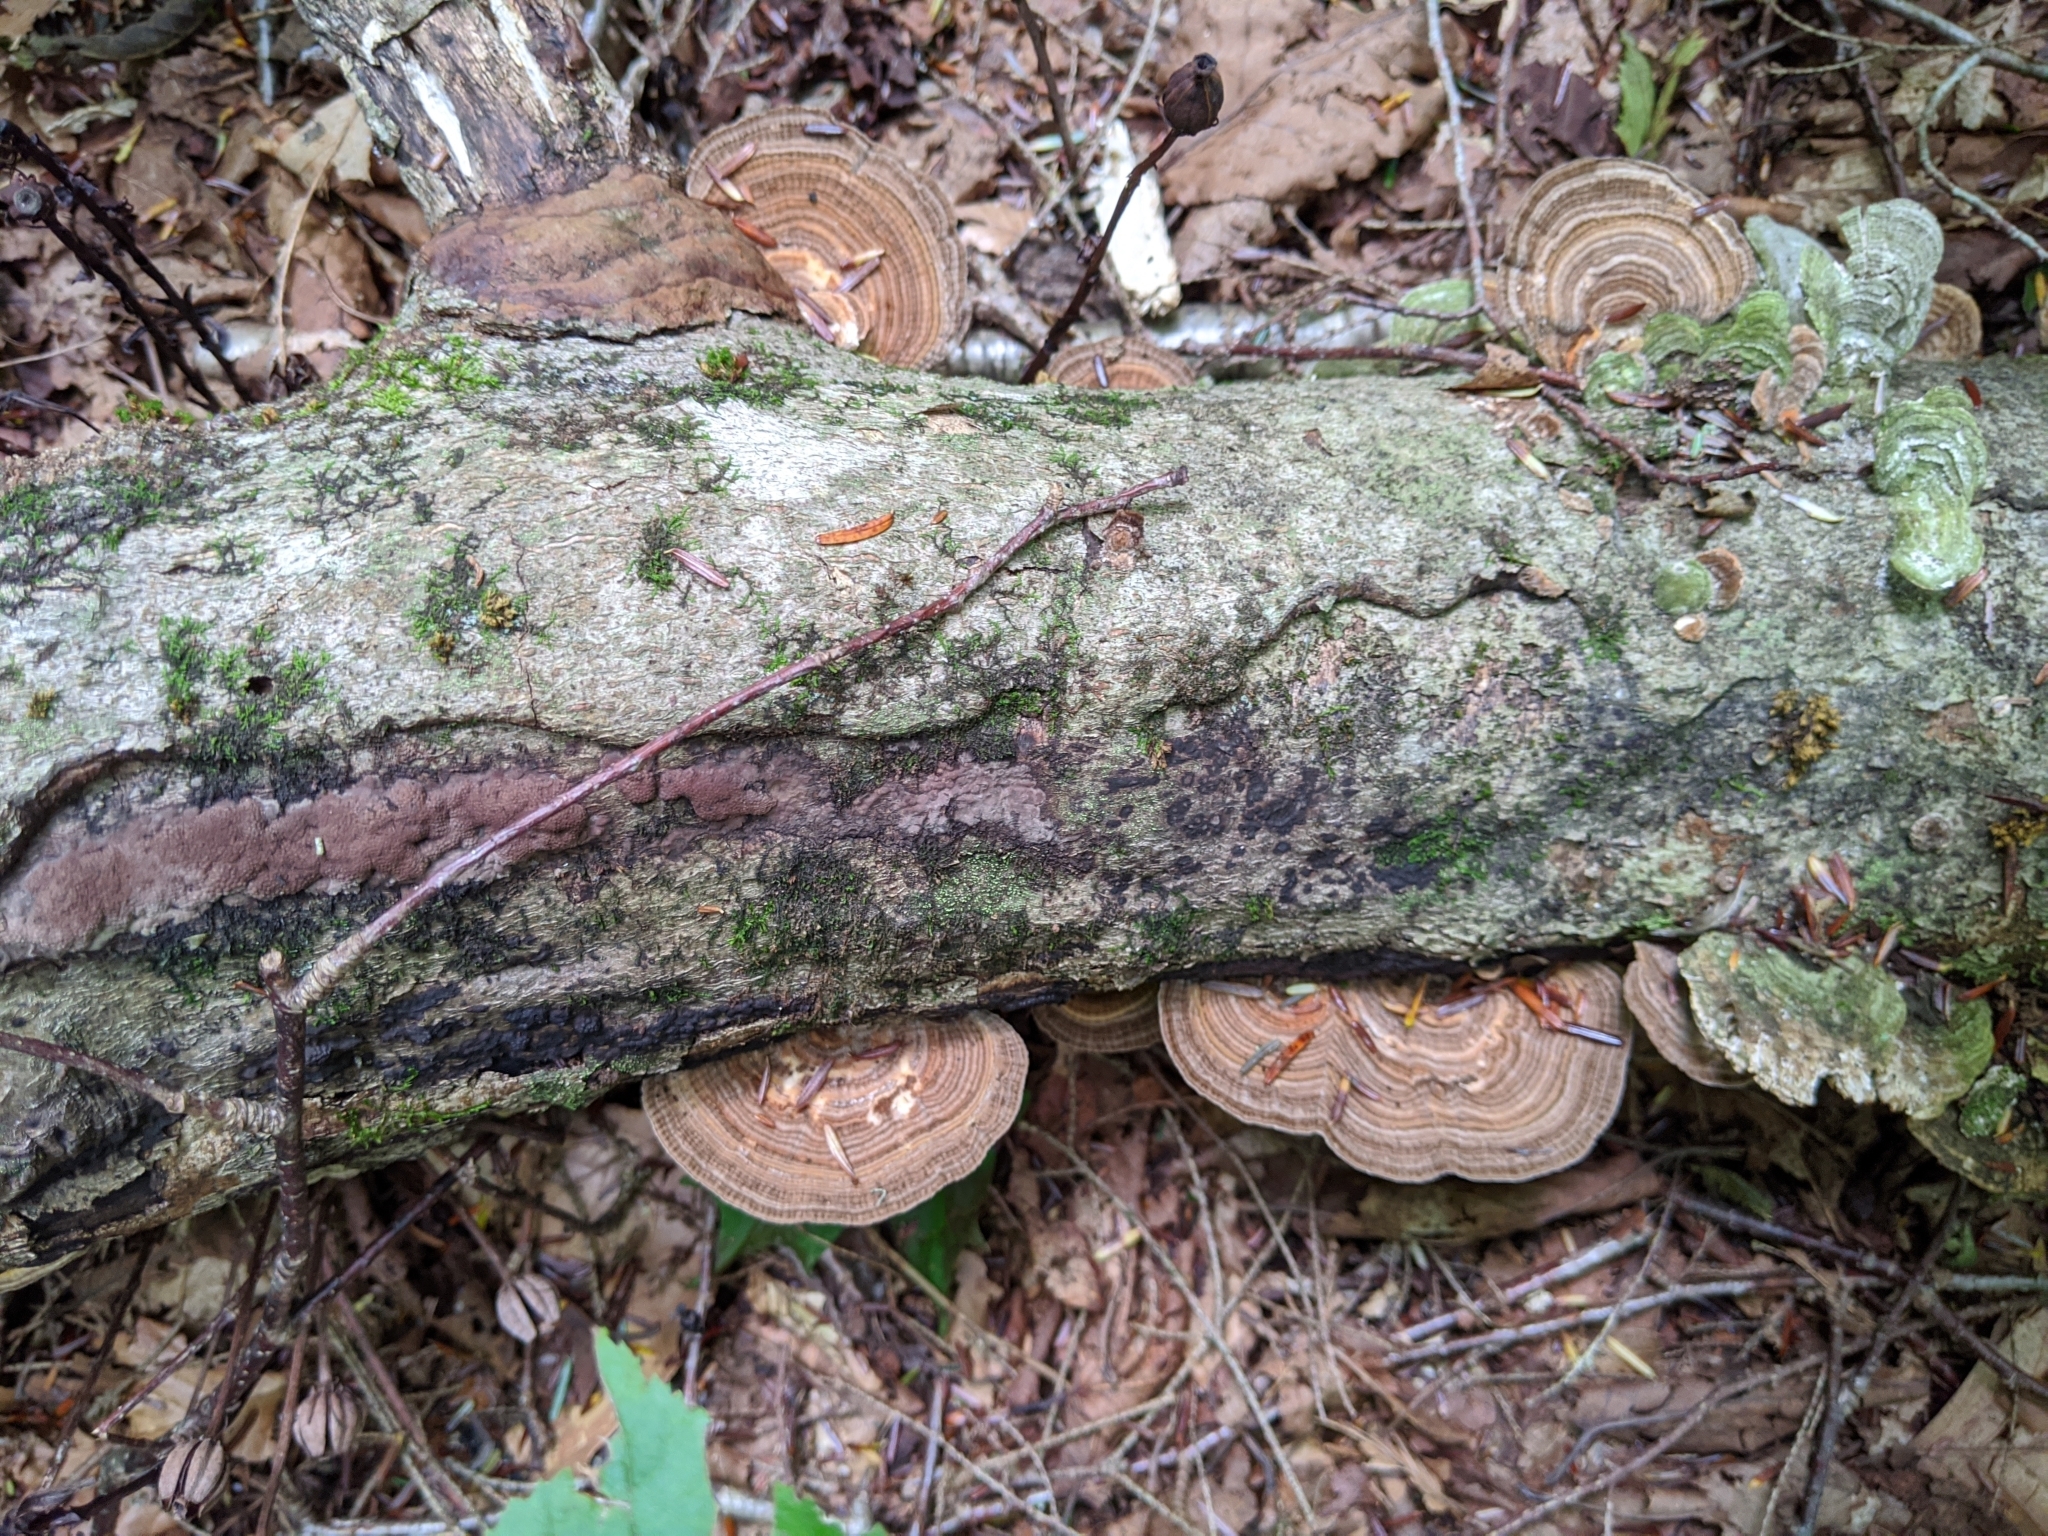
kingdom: Fungi
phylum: Basidiomycota
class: Agaricomycetes
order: Polyporales
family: Fomitopsidaceae
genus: Fomitopsis
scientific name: Fomitopsis
